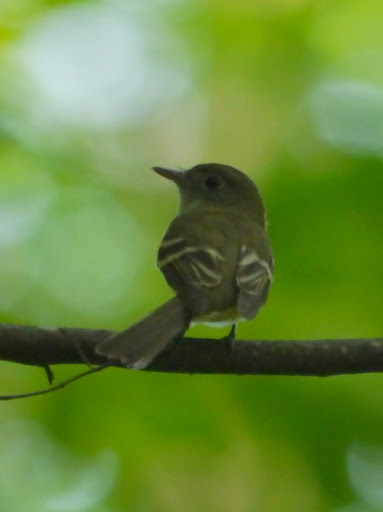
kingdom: Animalia
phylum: Chordata
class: Aves
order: Passeriformes
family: Tyrannidae
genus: Empidonax
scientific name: Empidonax virescens
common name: Acadian flycatcher
